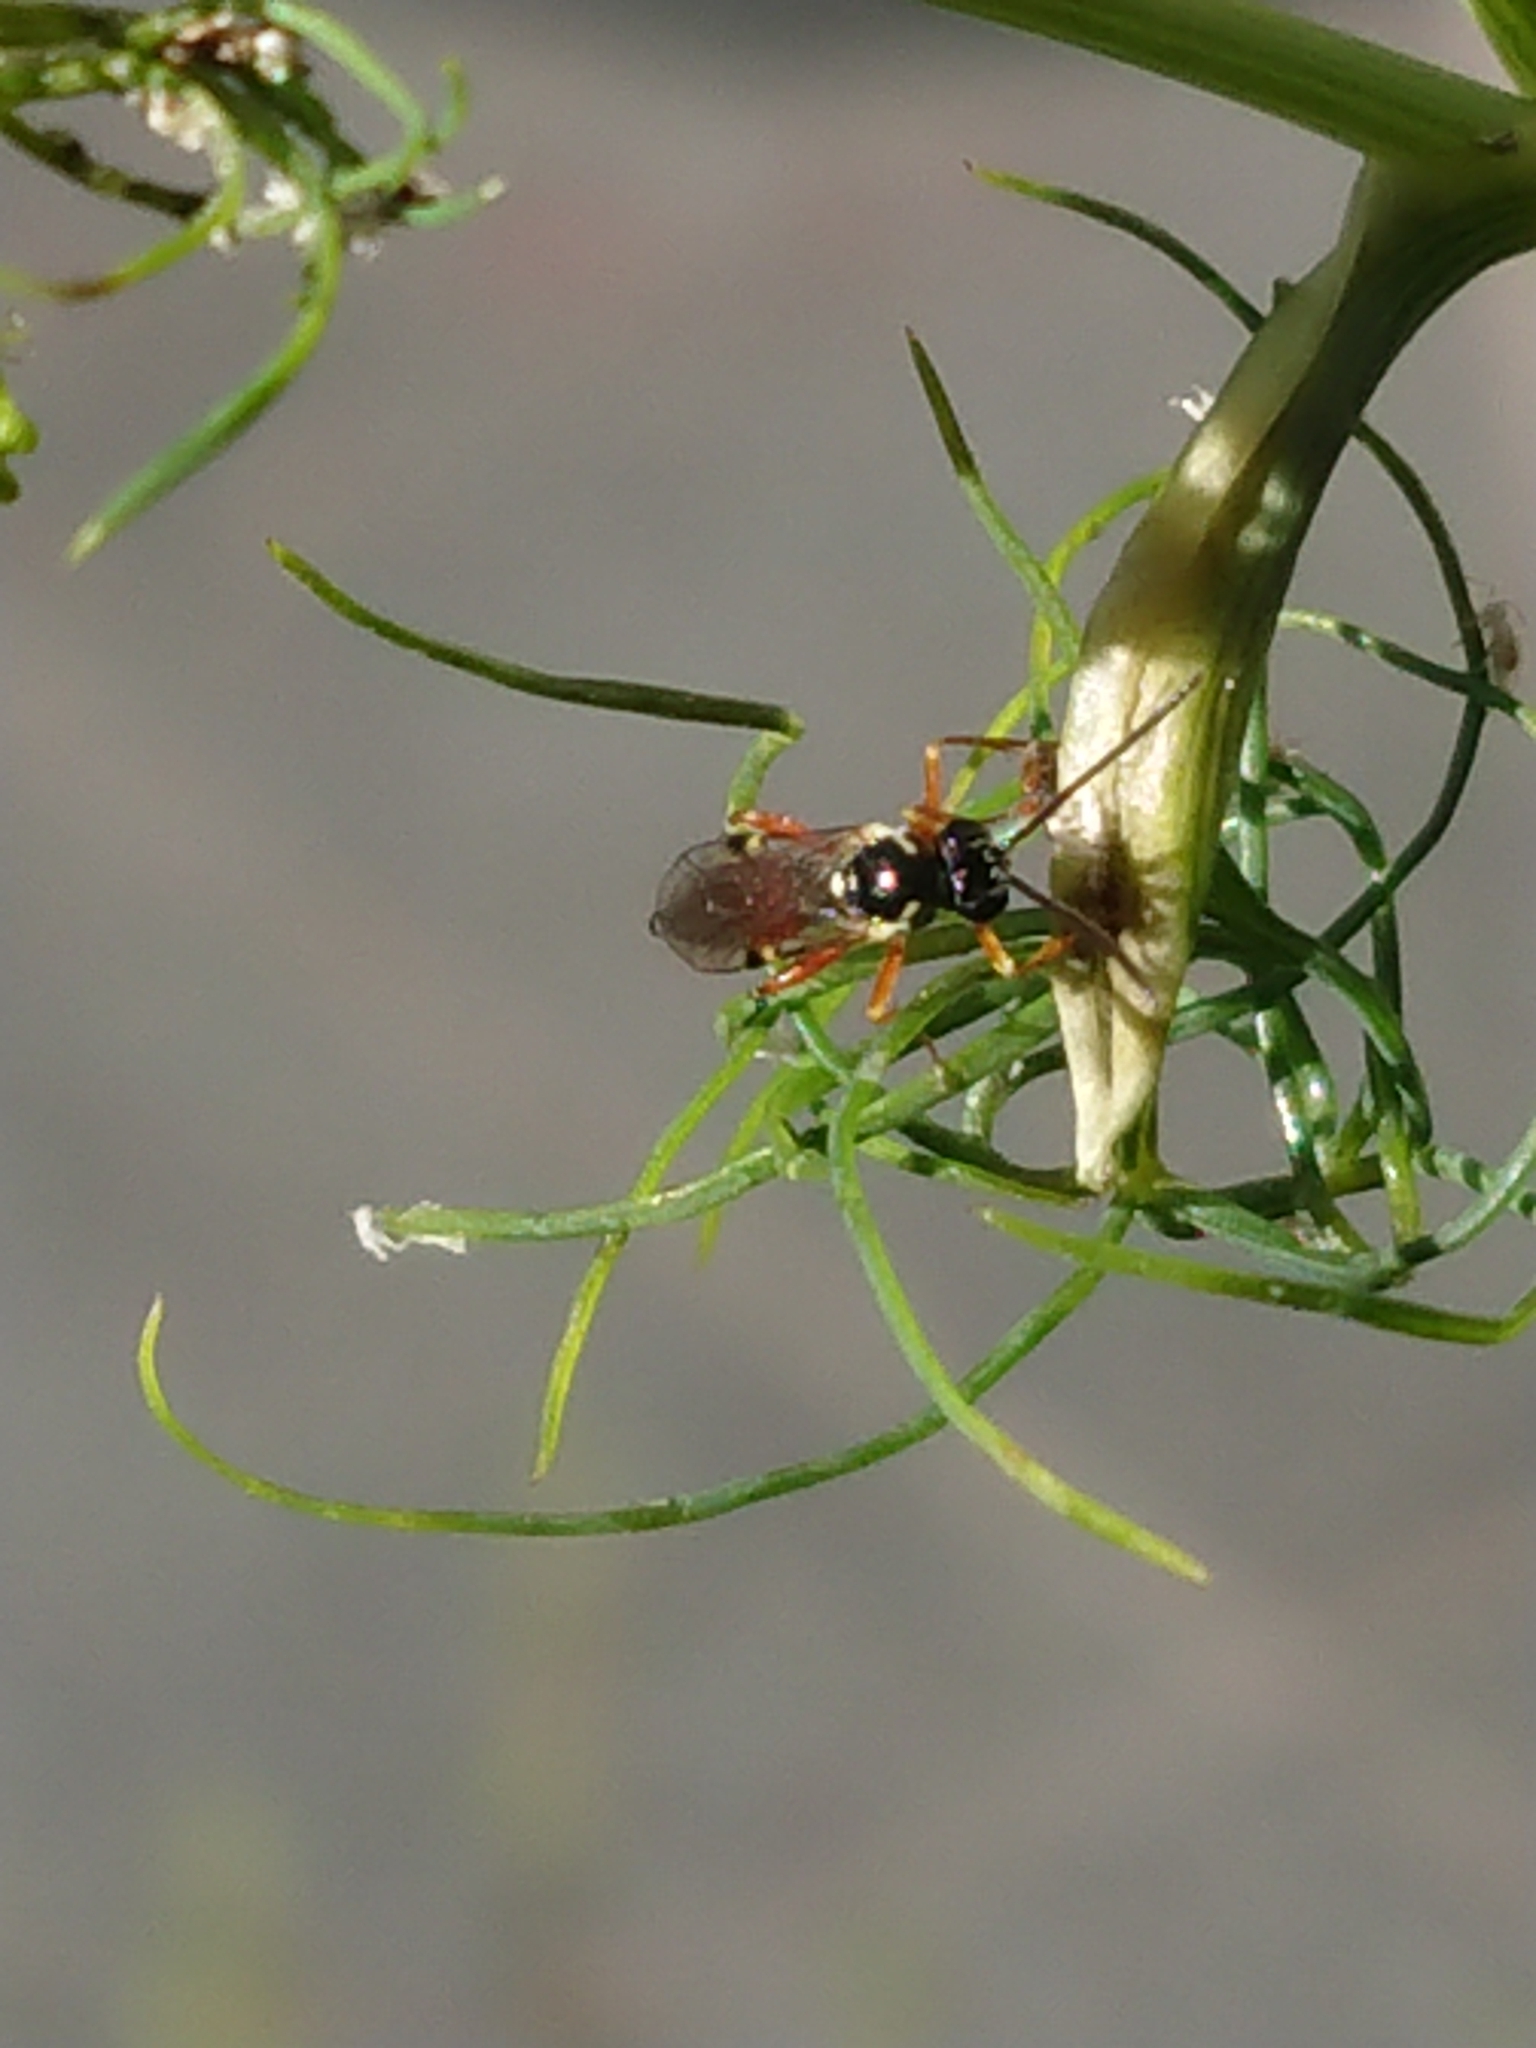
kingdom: Animalia
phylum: Arthropoda
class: Insecta
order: Hymenoptera
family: Ichneumonidae
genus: Diplazon
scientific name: Diplazon laetatorius
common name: Parasitoid wasp
